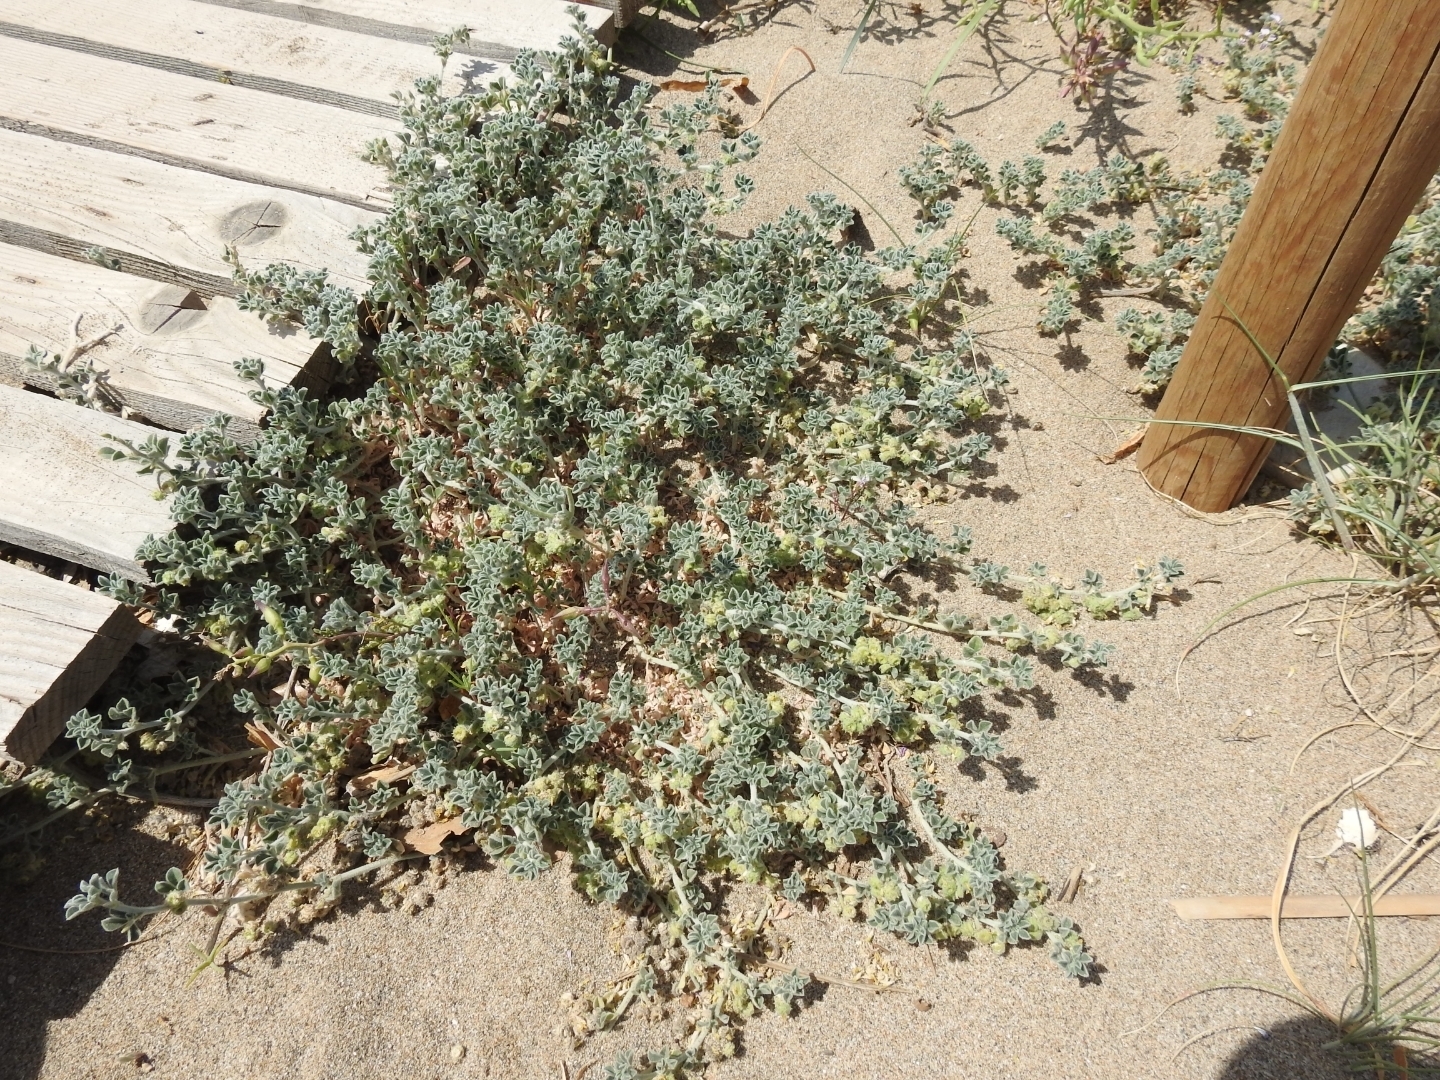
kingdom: Plantae
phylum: Tracheophyta
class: Magnoliopsida
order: Fabales
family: Fabaceae
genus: Medicago
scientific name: Medicago marina
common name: Sea medick
